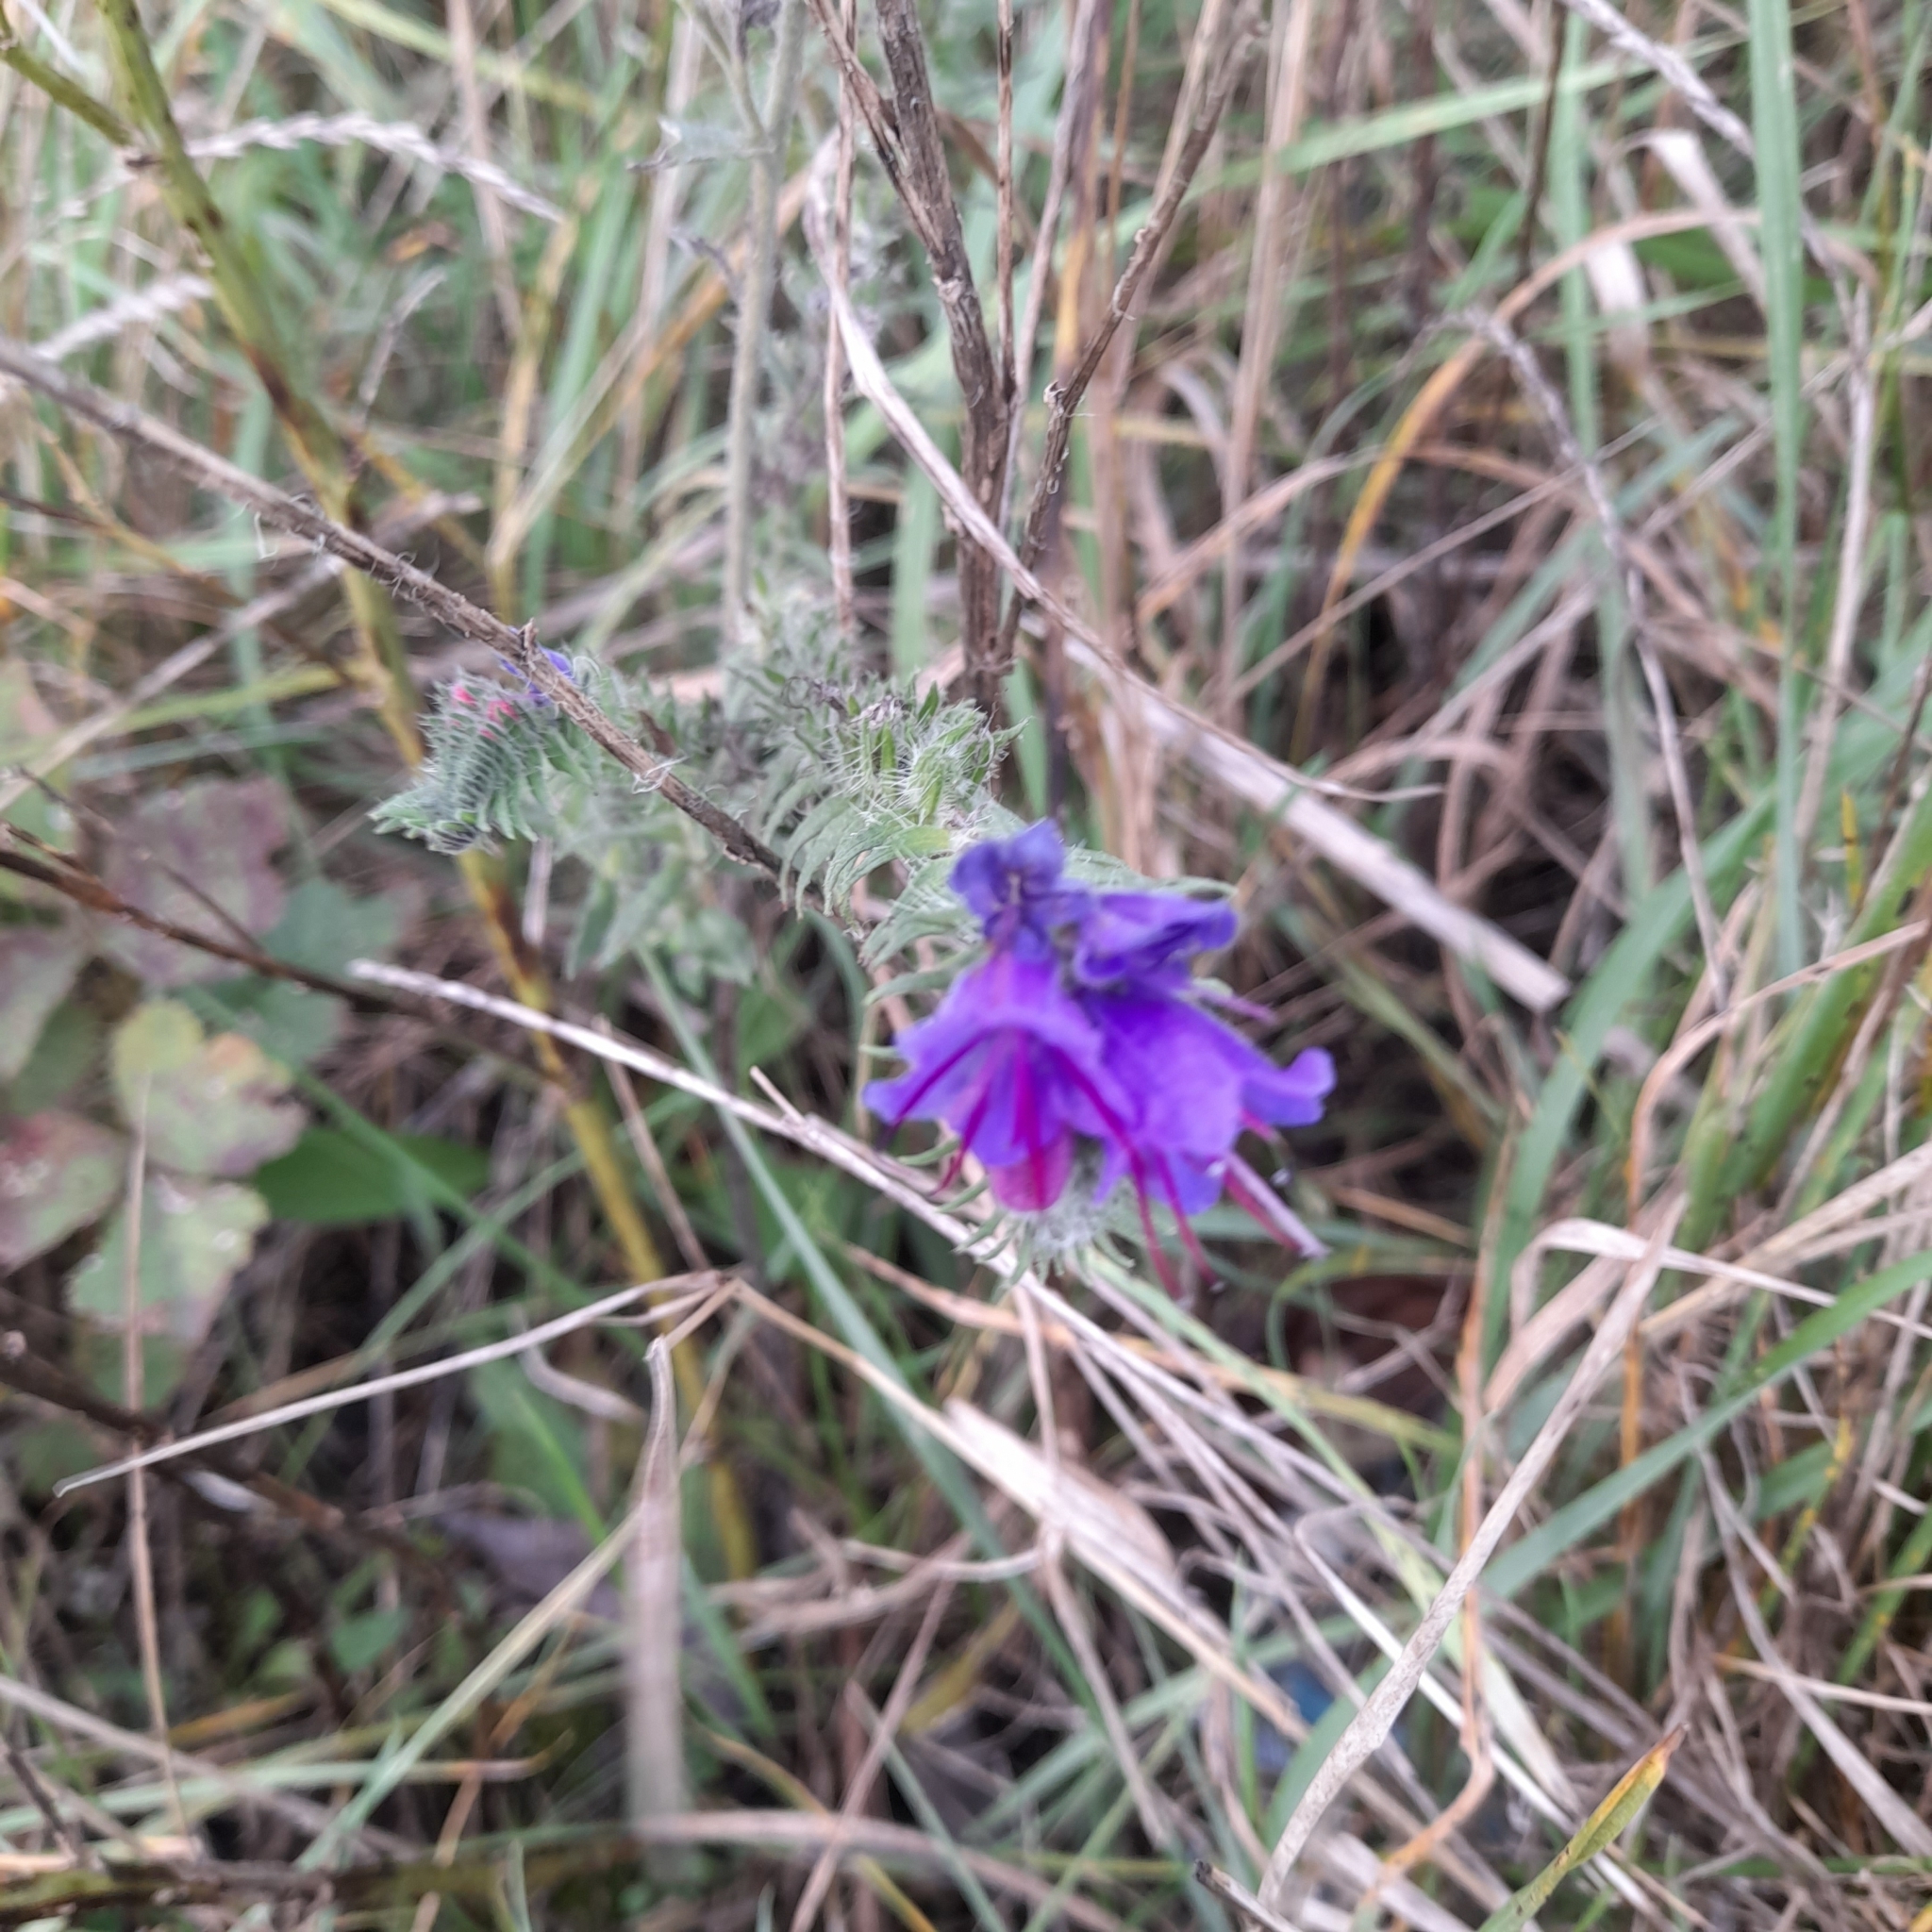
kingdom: Plantae
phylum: Tracheophyta
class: Magnoliopsida
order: Boraginales
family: Boraginaceae
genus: Echium
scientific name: Echium vulgare
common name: Common viper's bugloss
